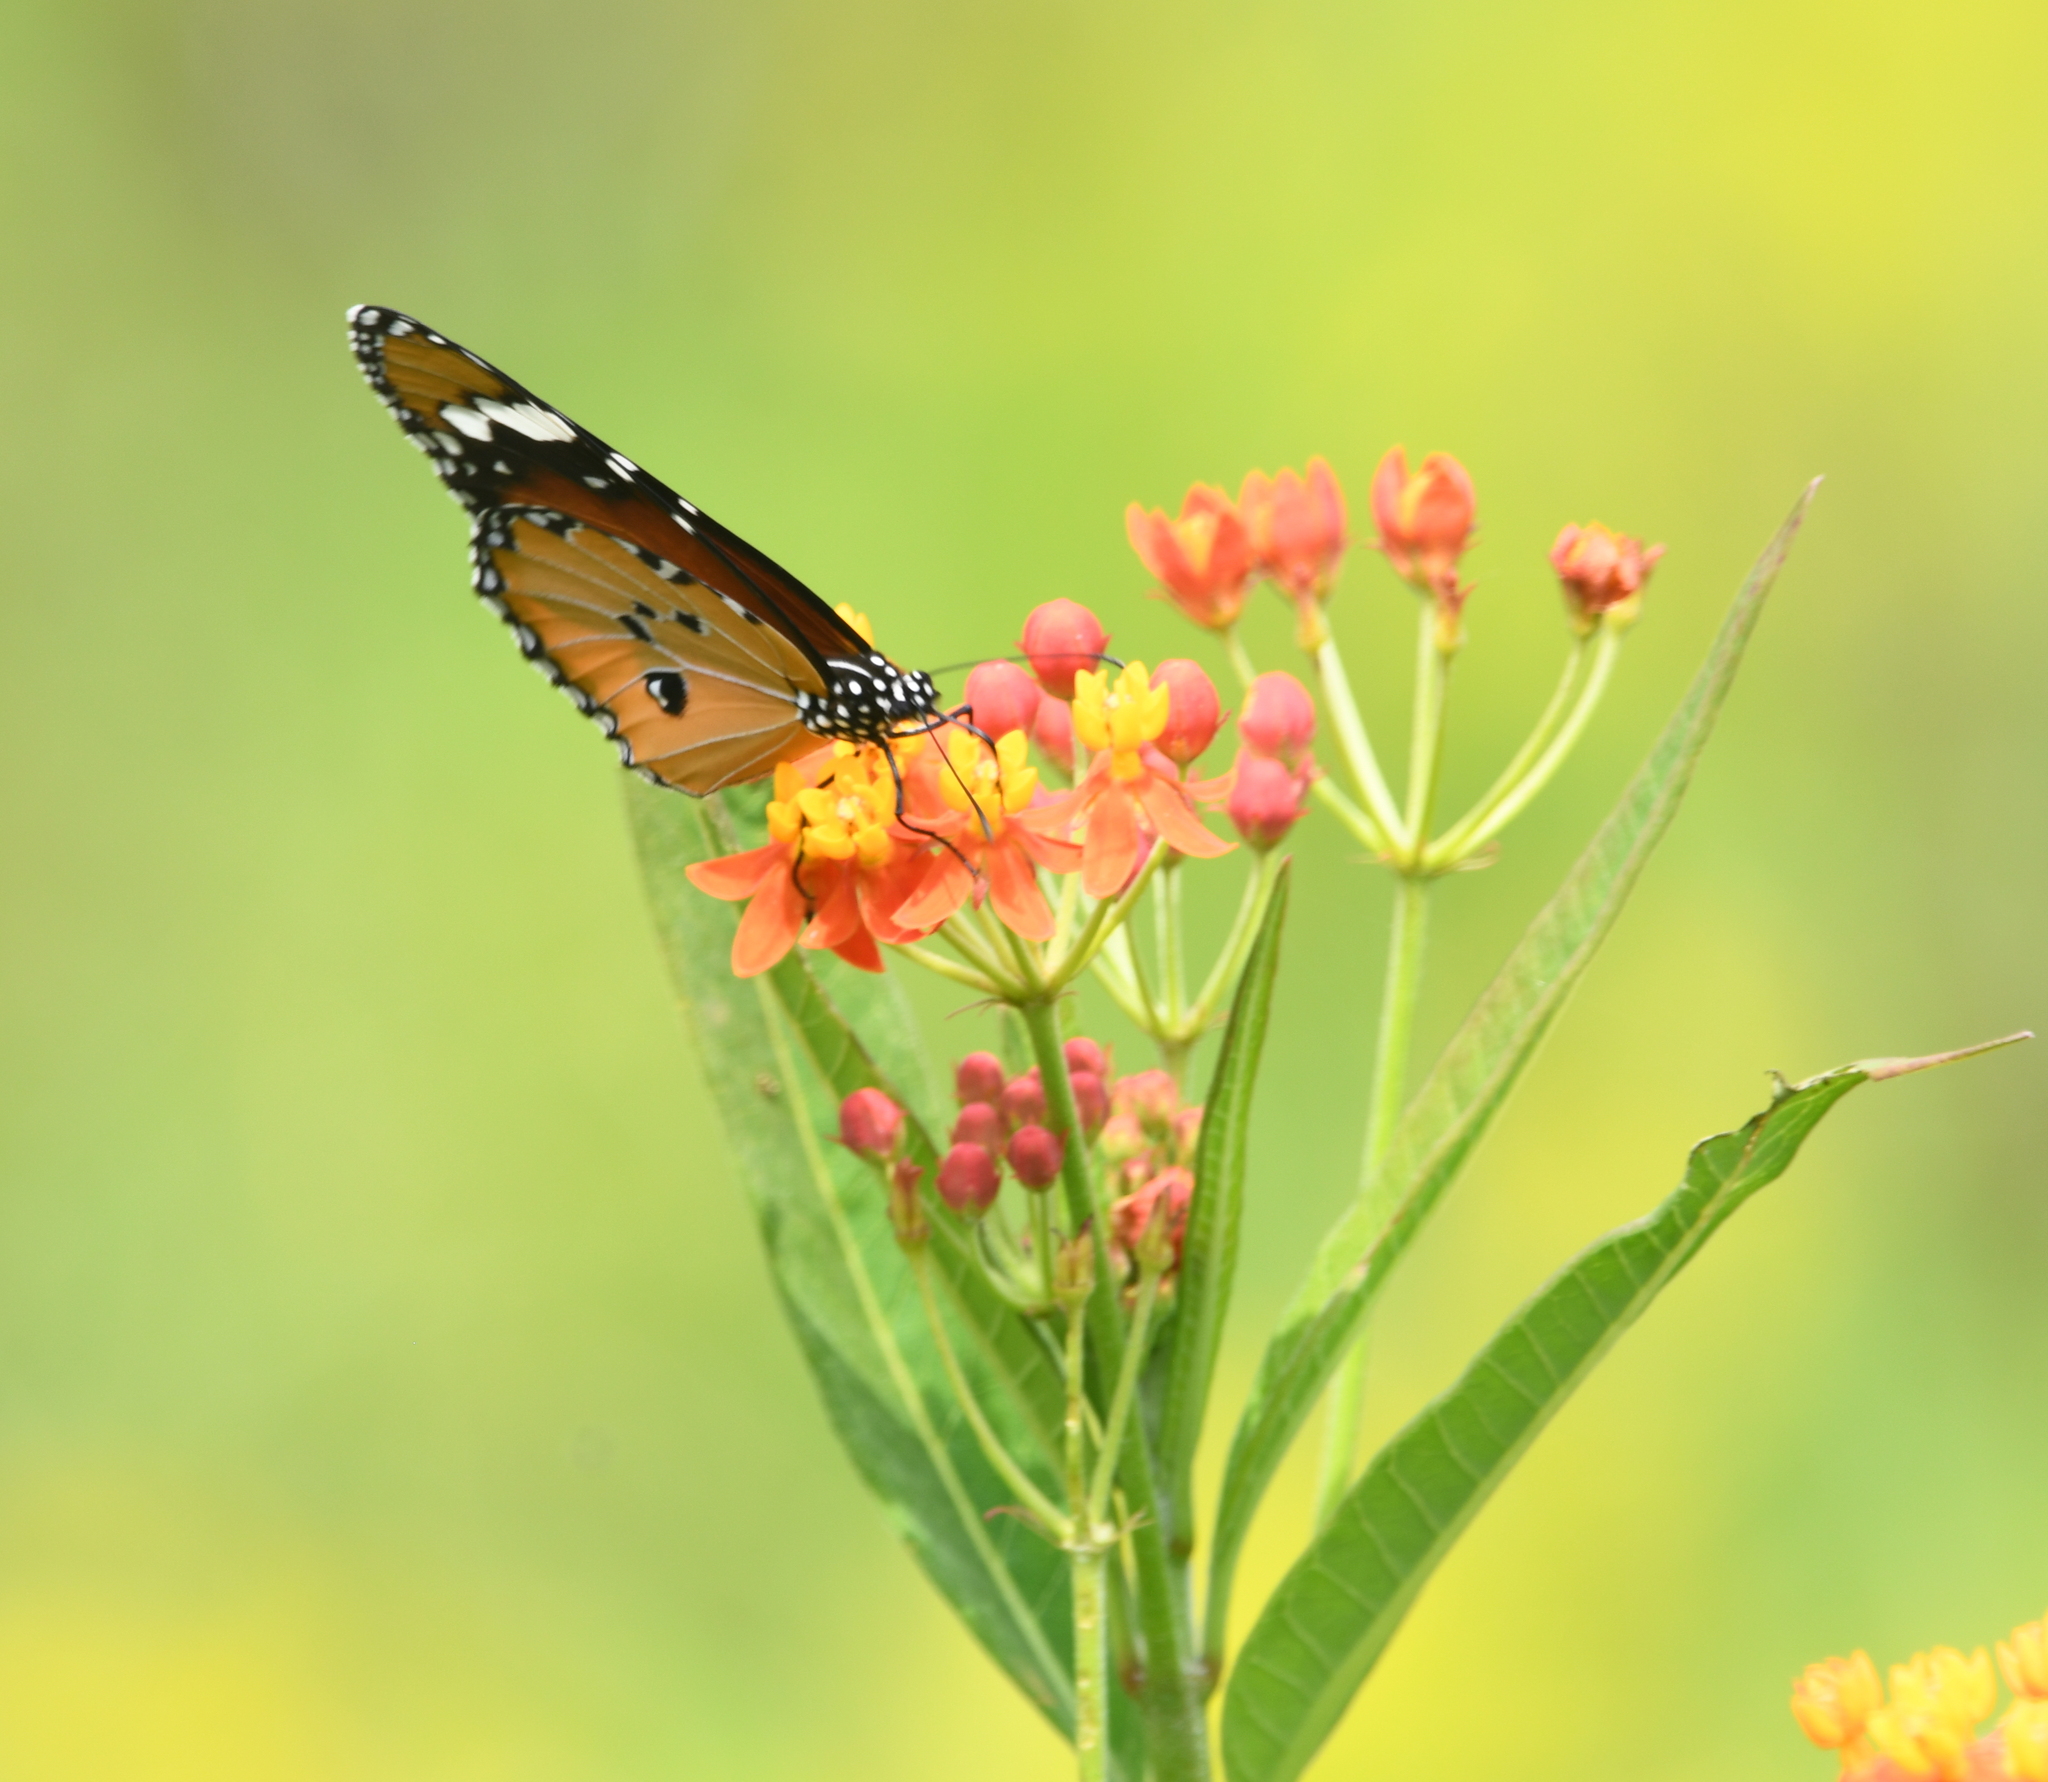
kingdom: Animalia
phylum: Arthropoda
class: Insecta
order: Lepidoptera
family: Nymphalidae
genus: Danaus
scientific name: Danaus chrysippus
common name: Plain tiger
